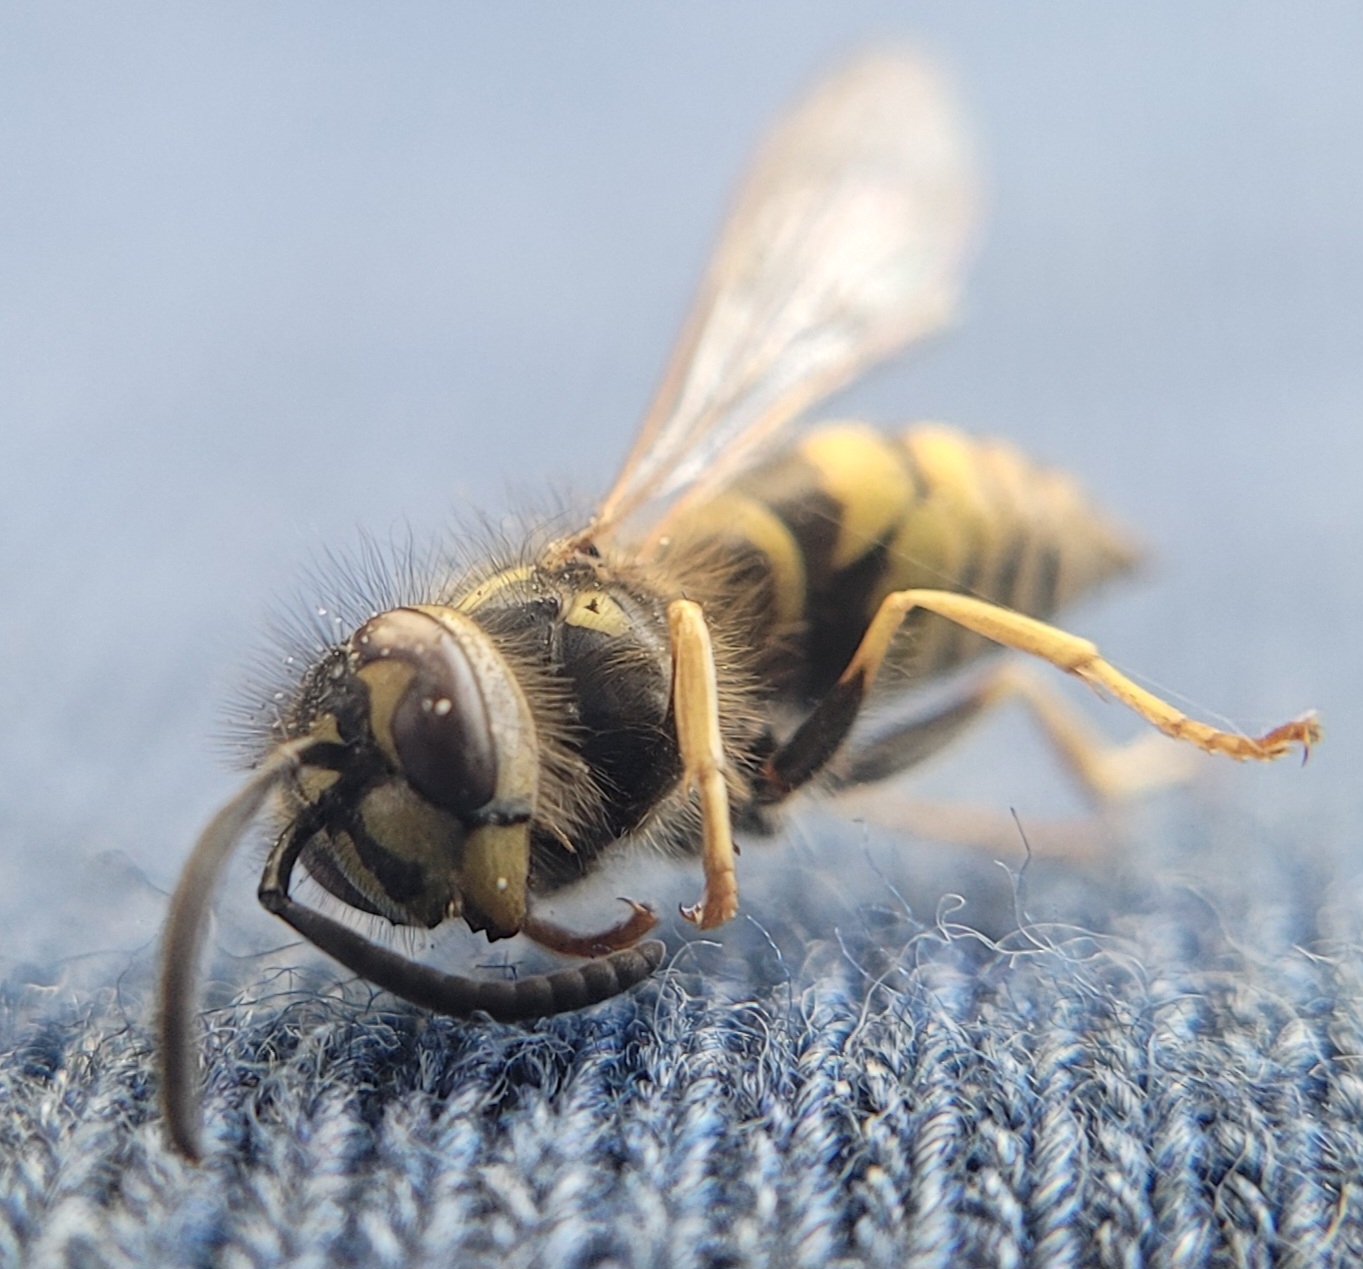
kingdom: Animalia
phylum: Arthropoda
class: Insecta
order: Hymenoptera
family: Vespidae
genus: Vespula
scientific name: Vespula vulgaris
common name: Common wasp
